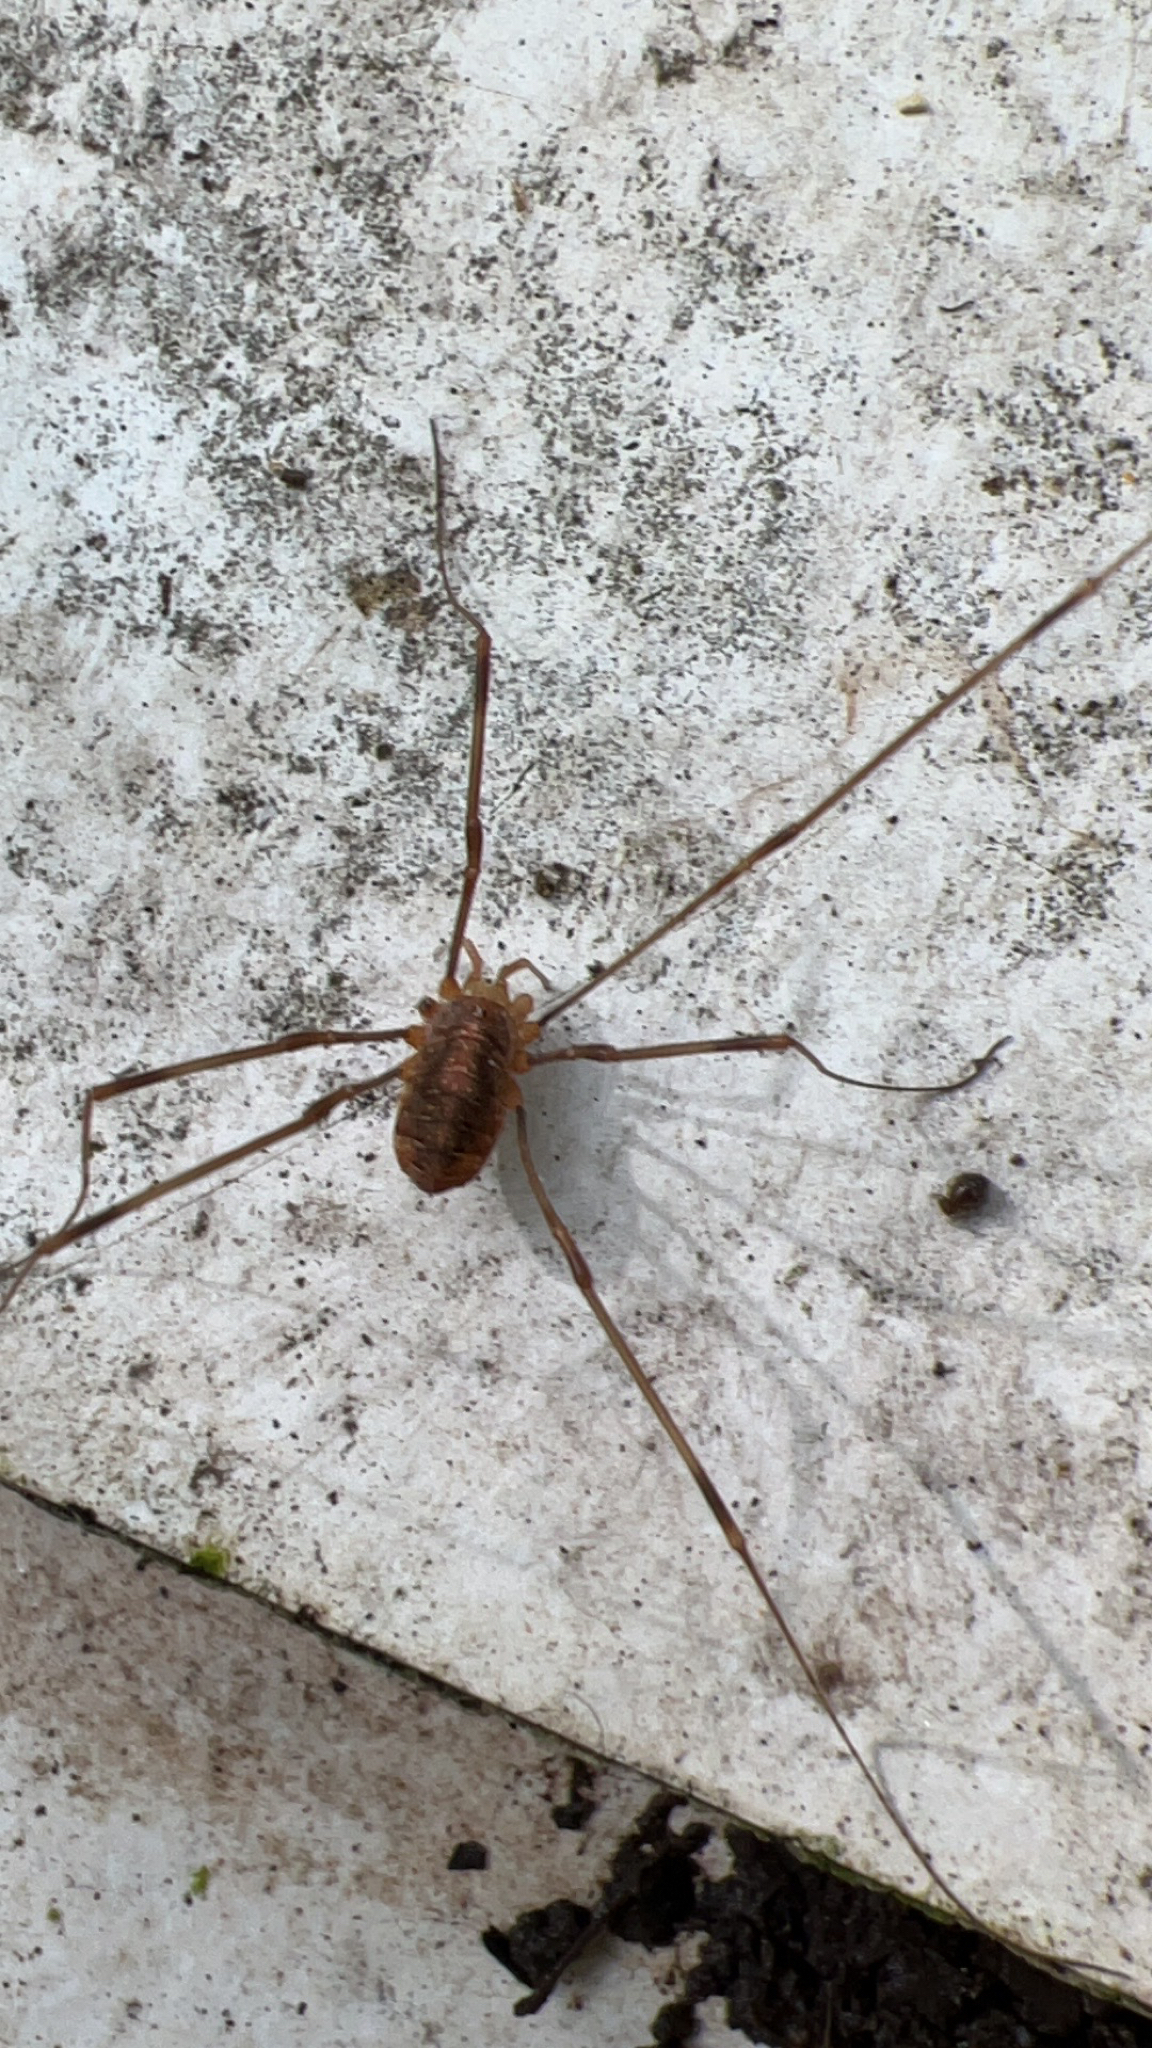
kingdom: Animalia
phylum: Arthropoda
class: Arachnida
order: Opiliones
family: Phalangiidae
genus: Opilio
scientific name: Opilio canestrinii
